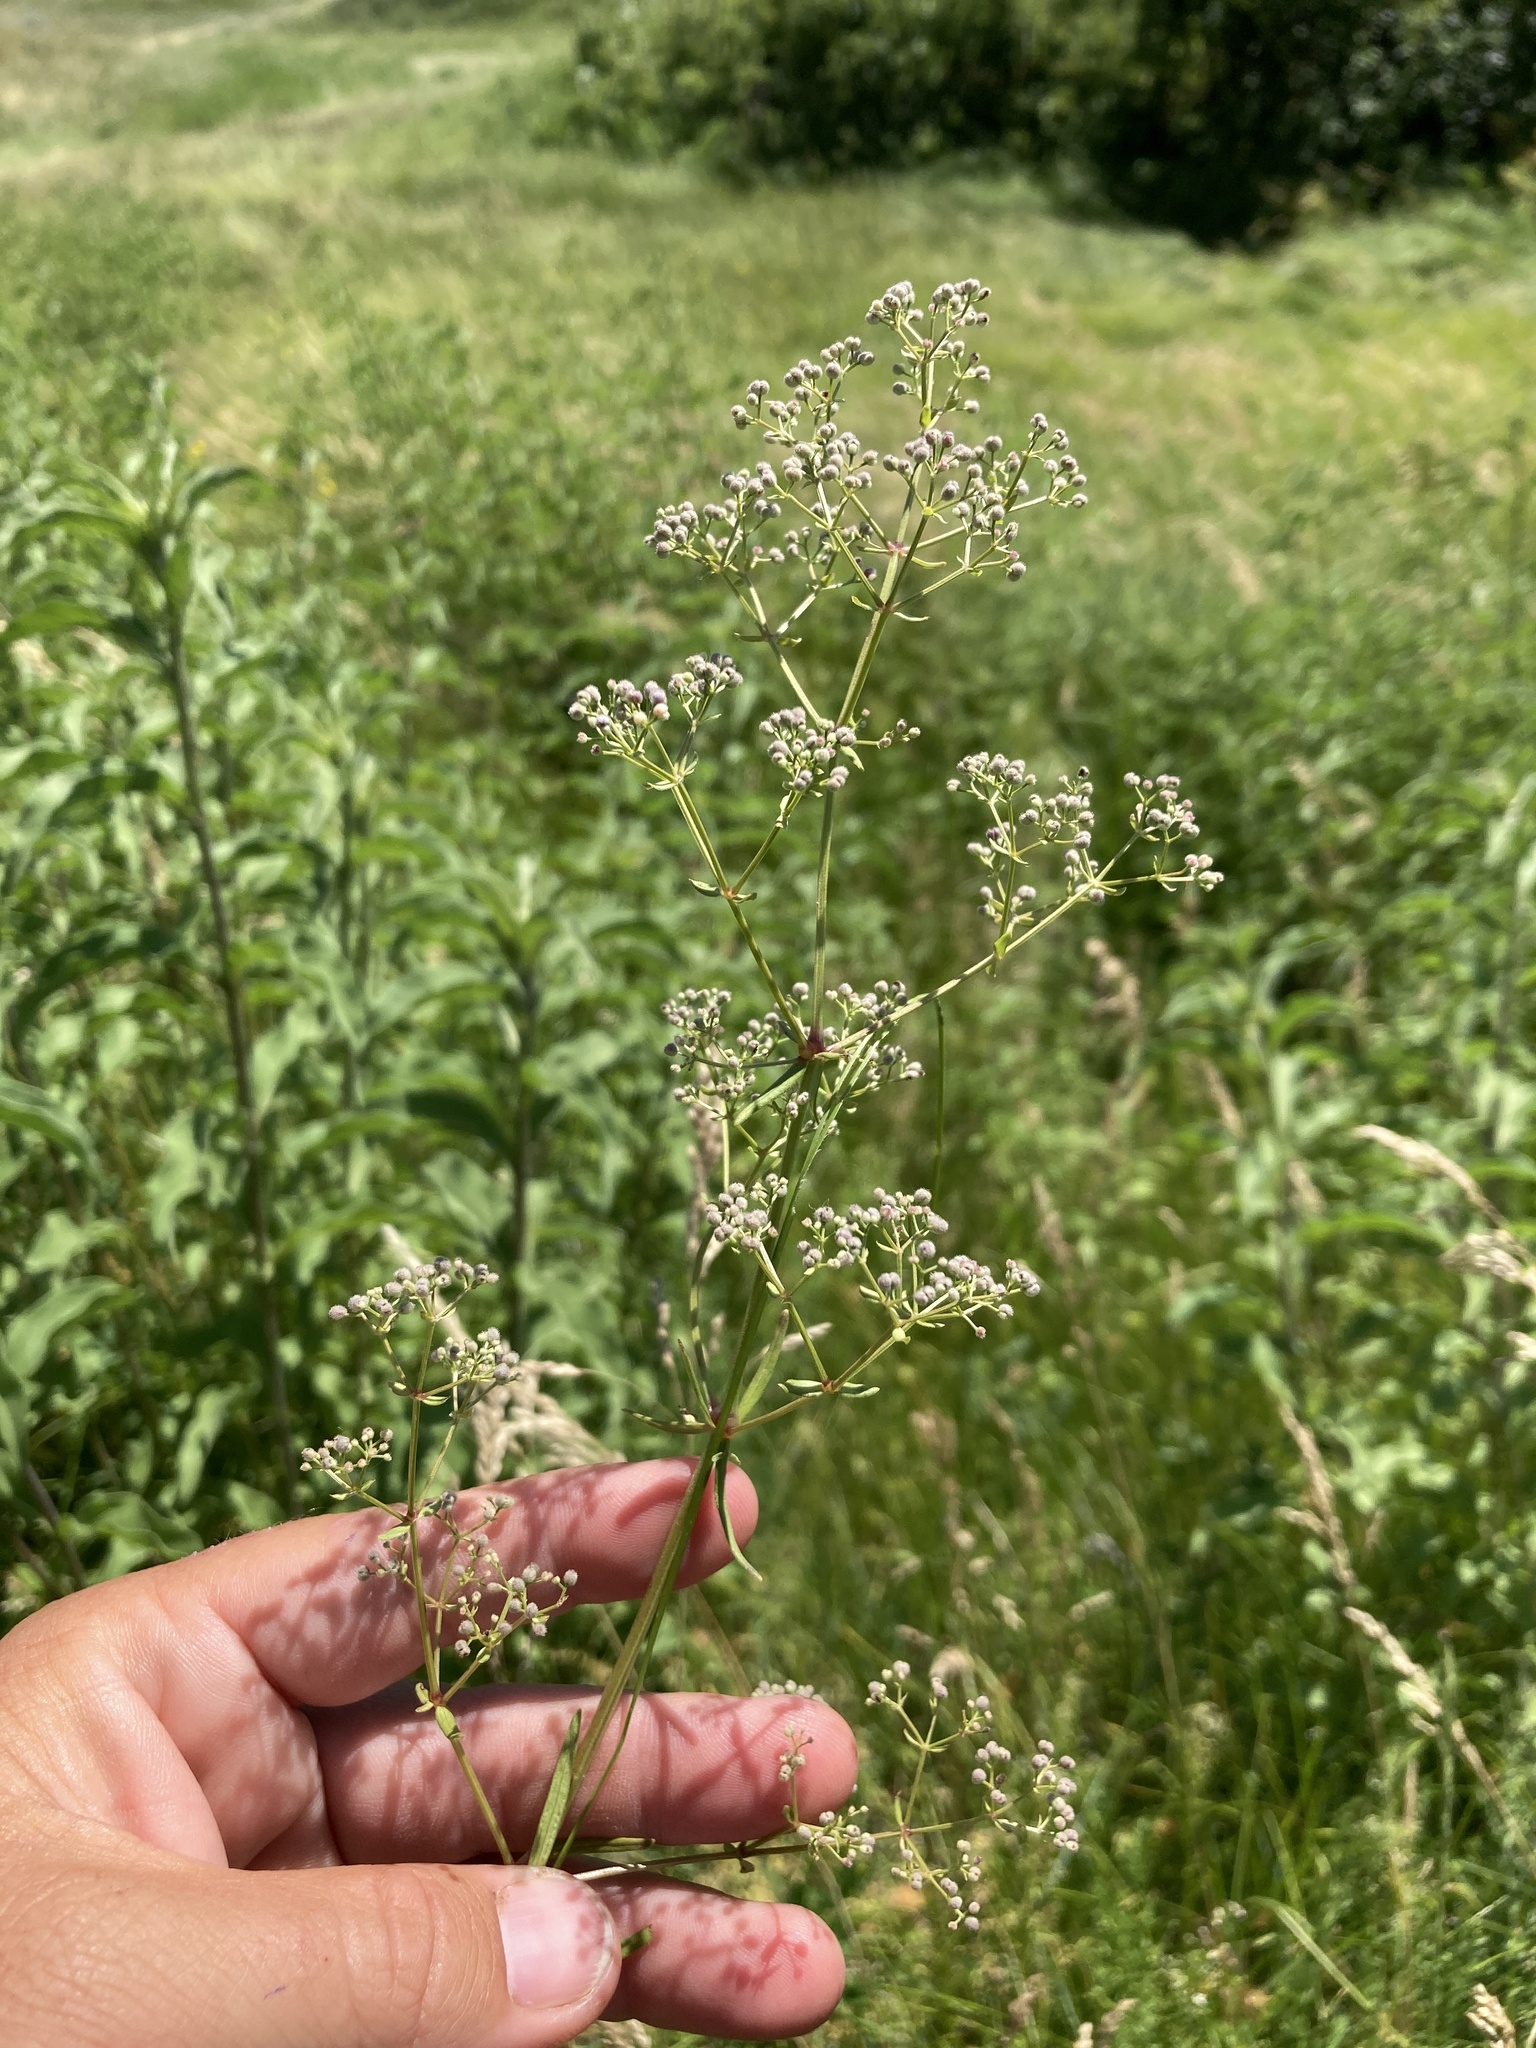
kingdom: Plantae
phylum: Tracheophyta
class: Magnoliopsida
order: Gentianales
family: Rubiaceae
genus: Galium
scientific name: Galium boreale
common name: Northern bedstraw
